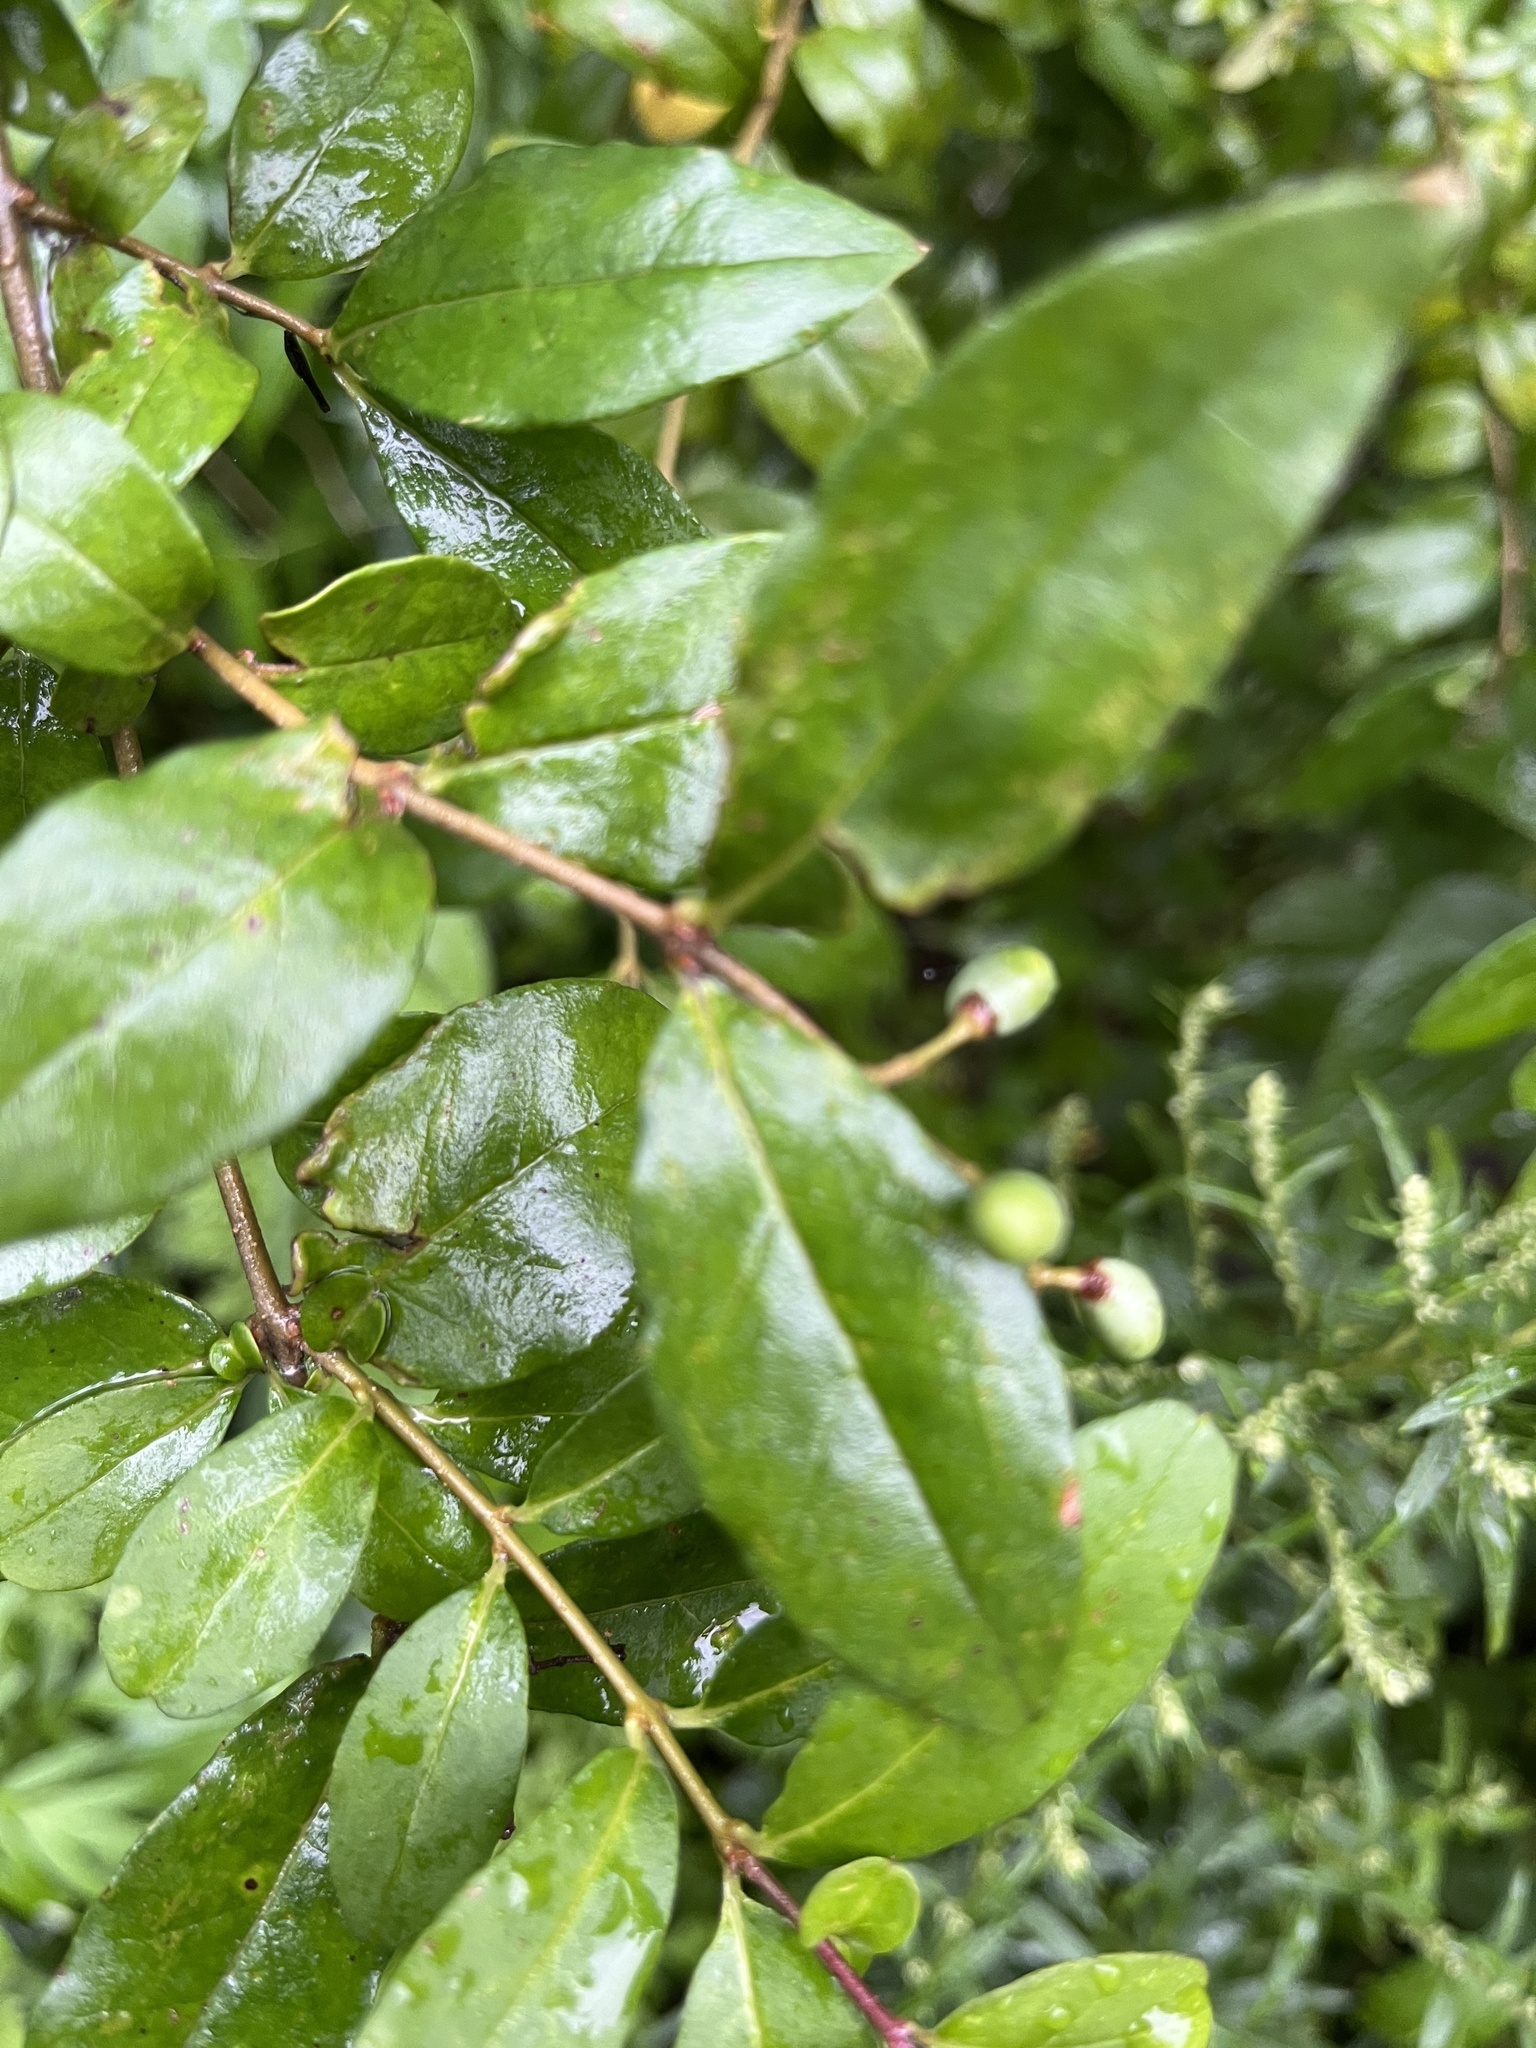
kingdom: Plantae
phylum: Tracheophyta
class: Magnoliopsida
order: Lamiales
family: Oleaceae
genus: Ligustrum
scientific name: Ligustrum obtusifolium
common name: Border privet
